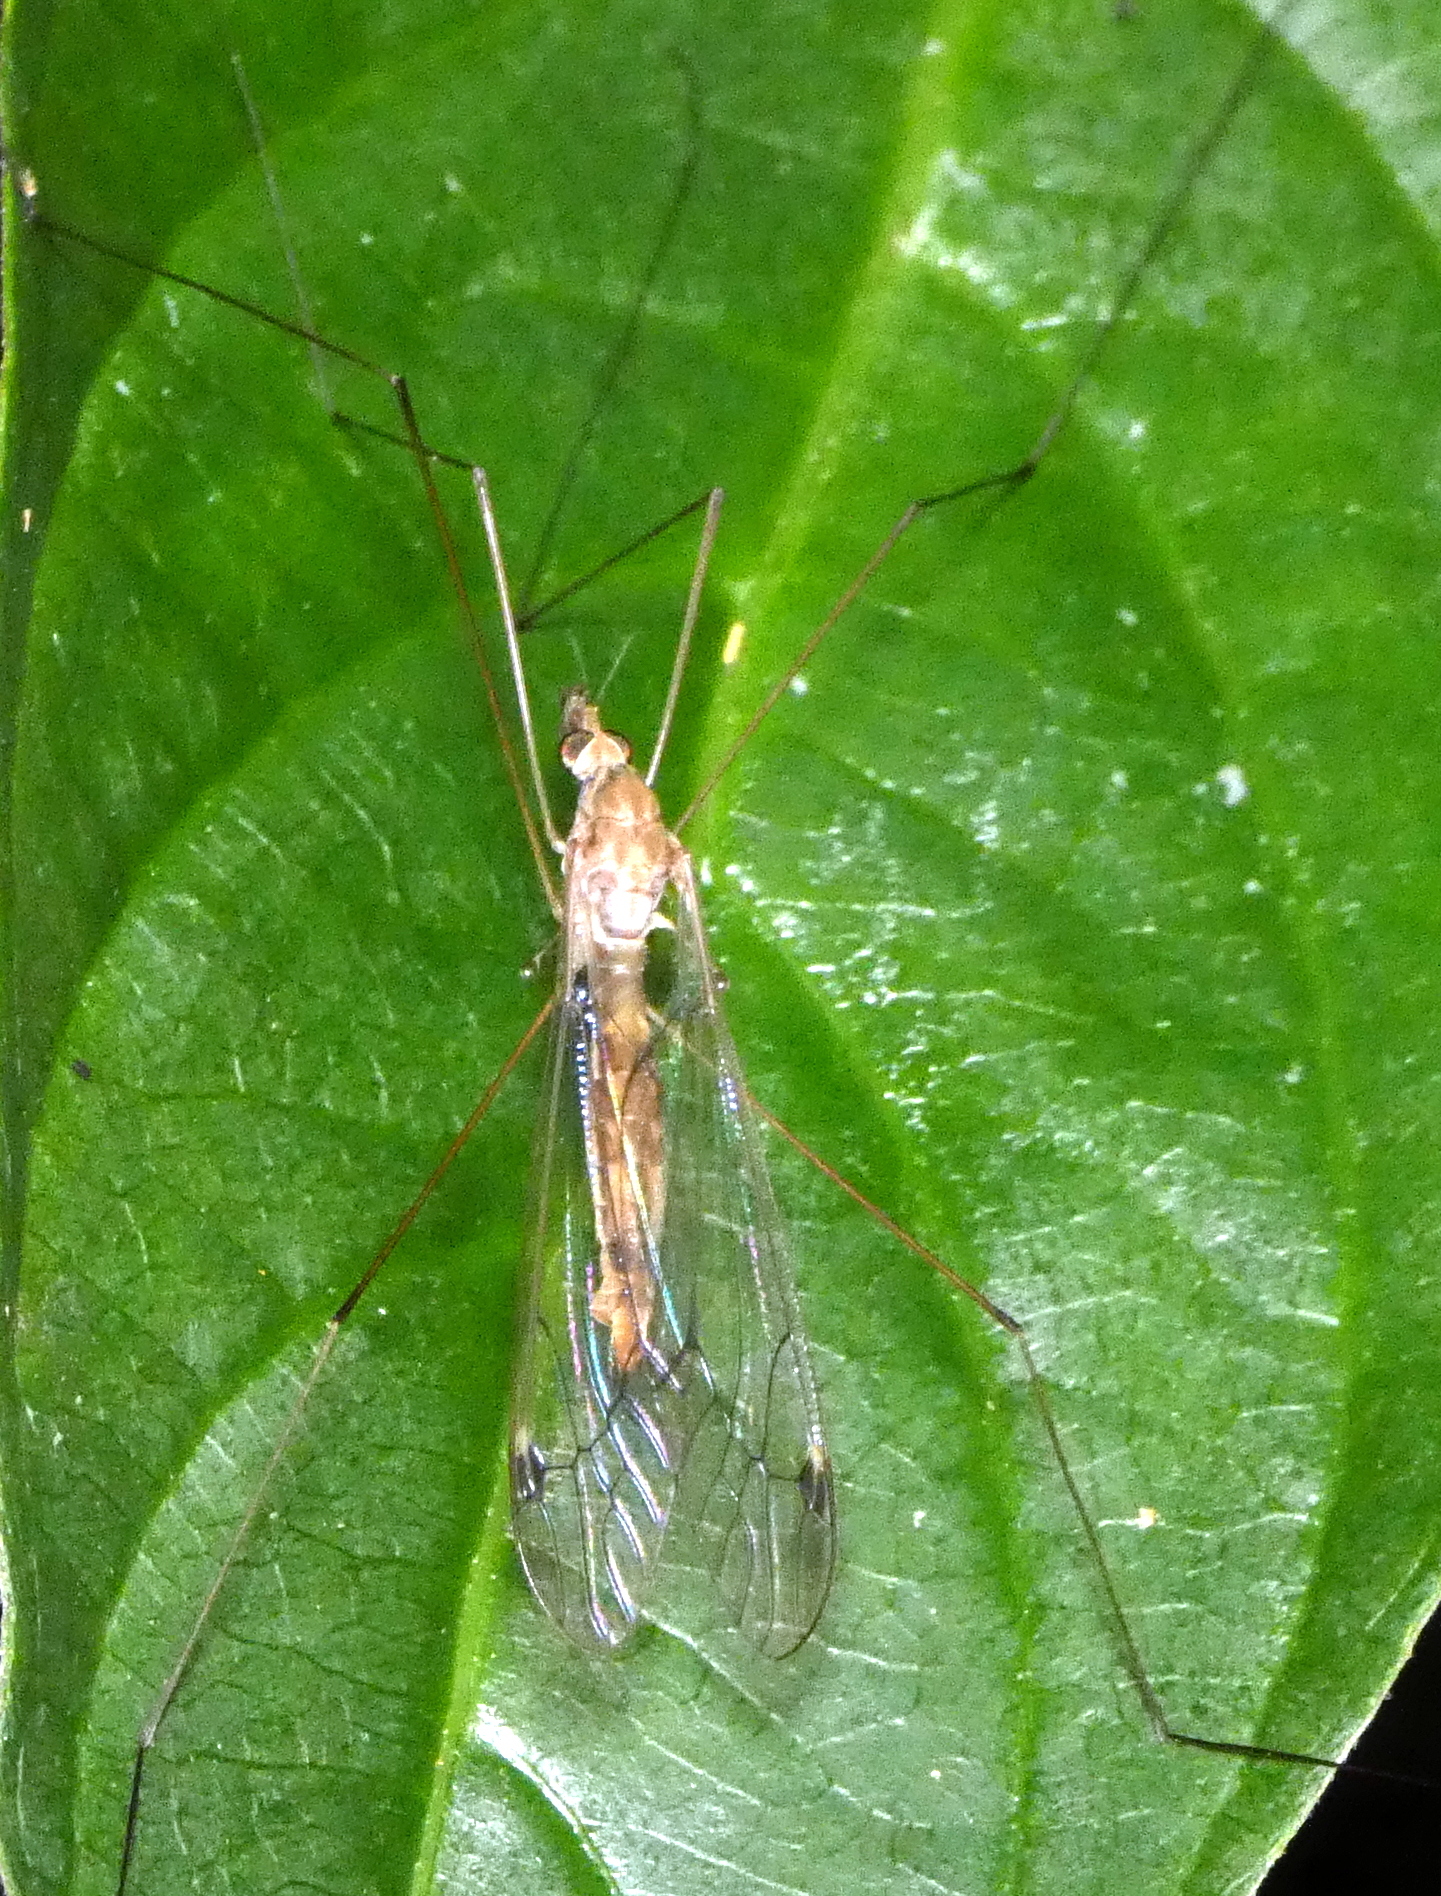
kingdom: Animalia
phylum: Arthropoda
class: Insecta
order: Diptera
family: Tipulidae
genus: Maekistocera
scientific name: Maekistocera longipennis
